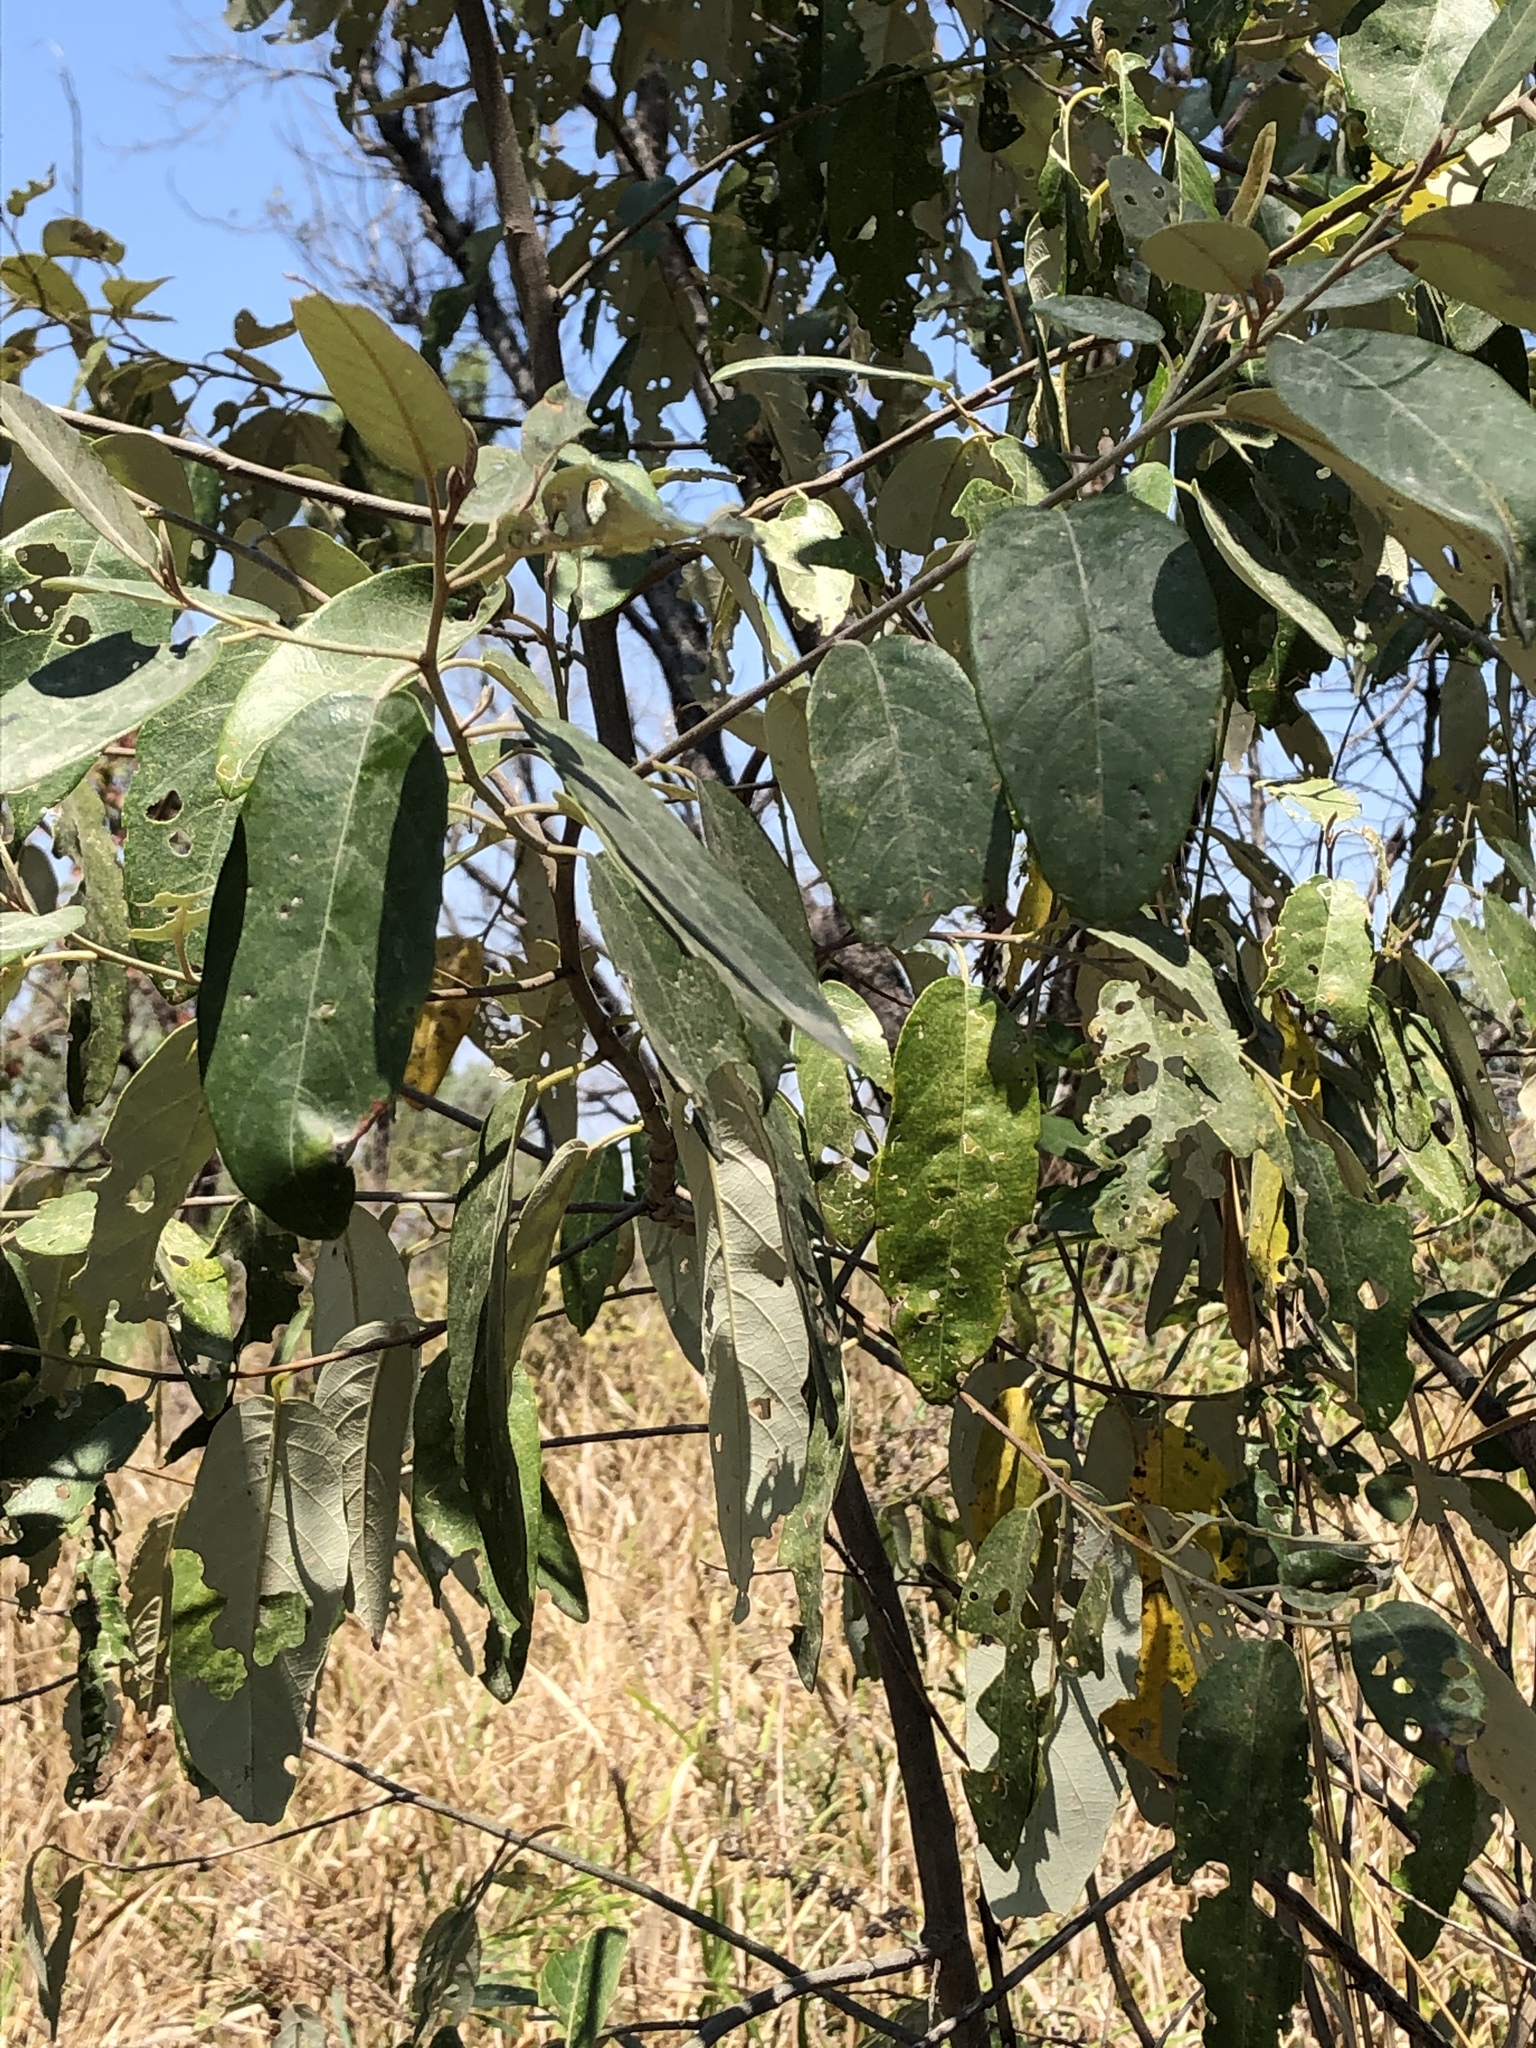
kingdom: Plantae
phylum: Tracheophyta
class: Magnoliopsida
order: Rosales
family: Rhamnaceae
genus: Alphitonia
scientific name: Alphitonia excelsa
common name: Red ash
